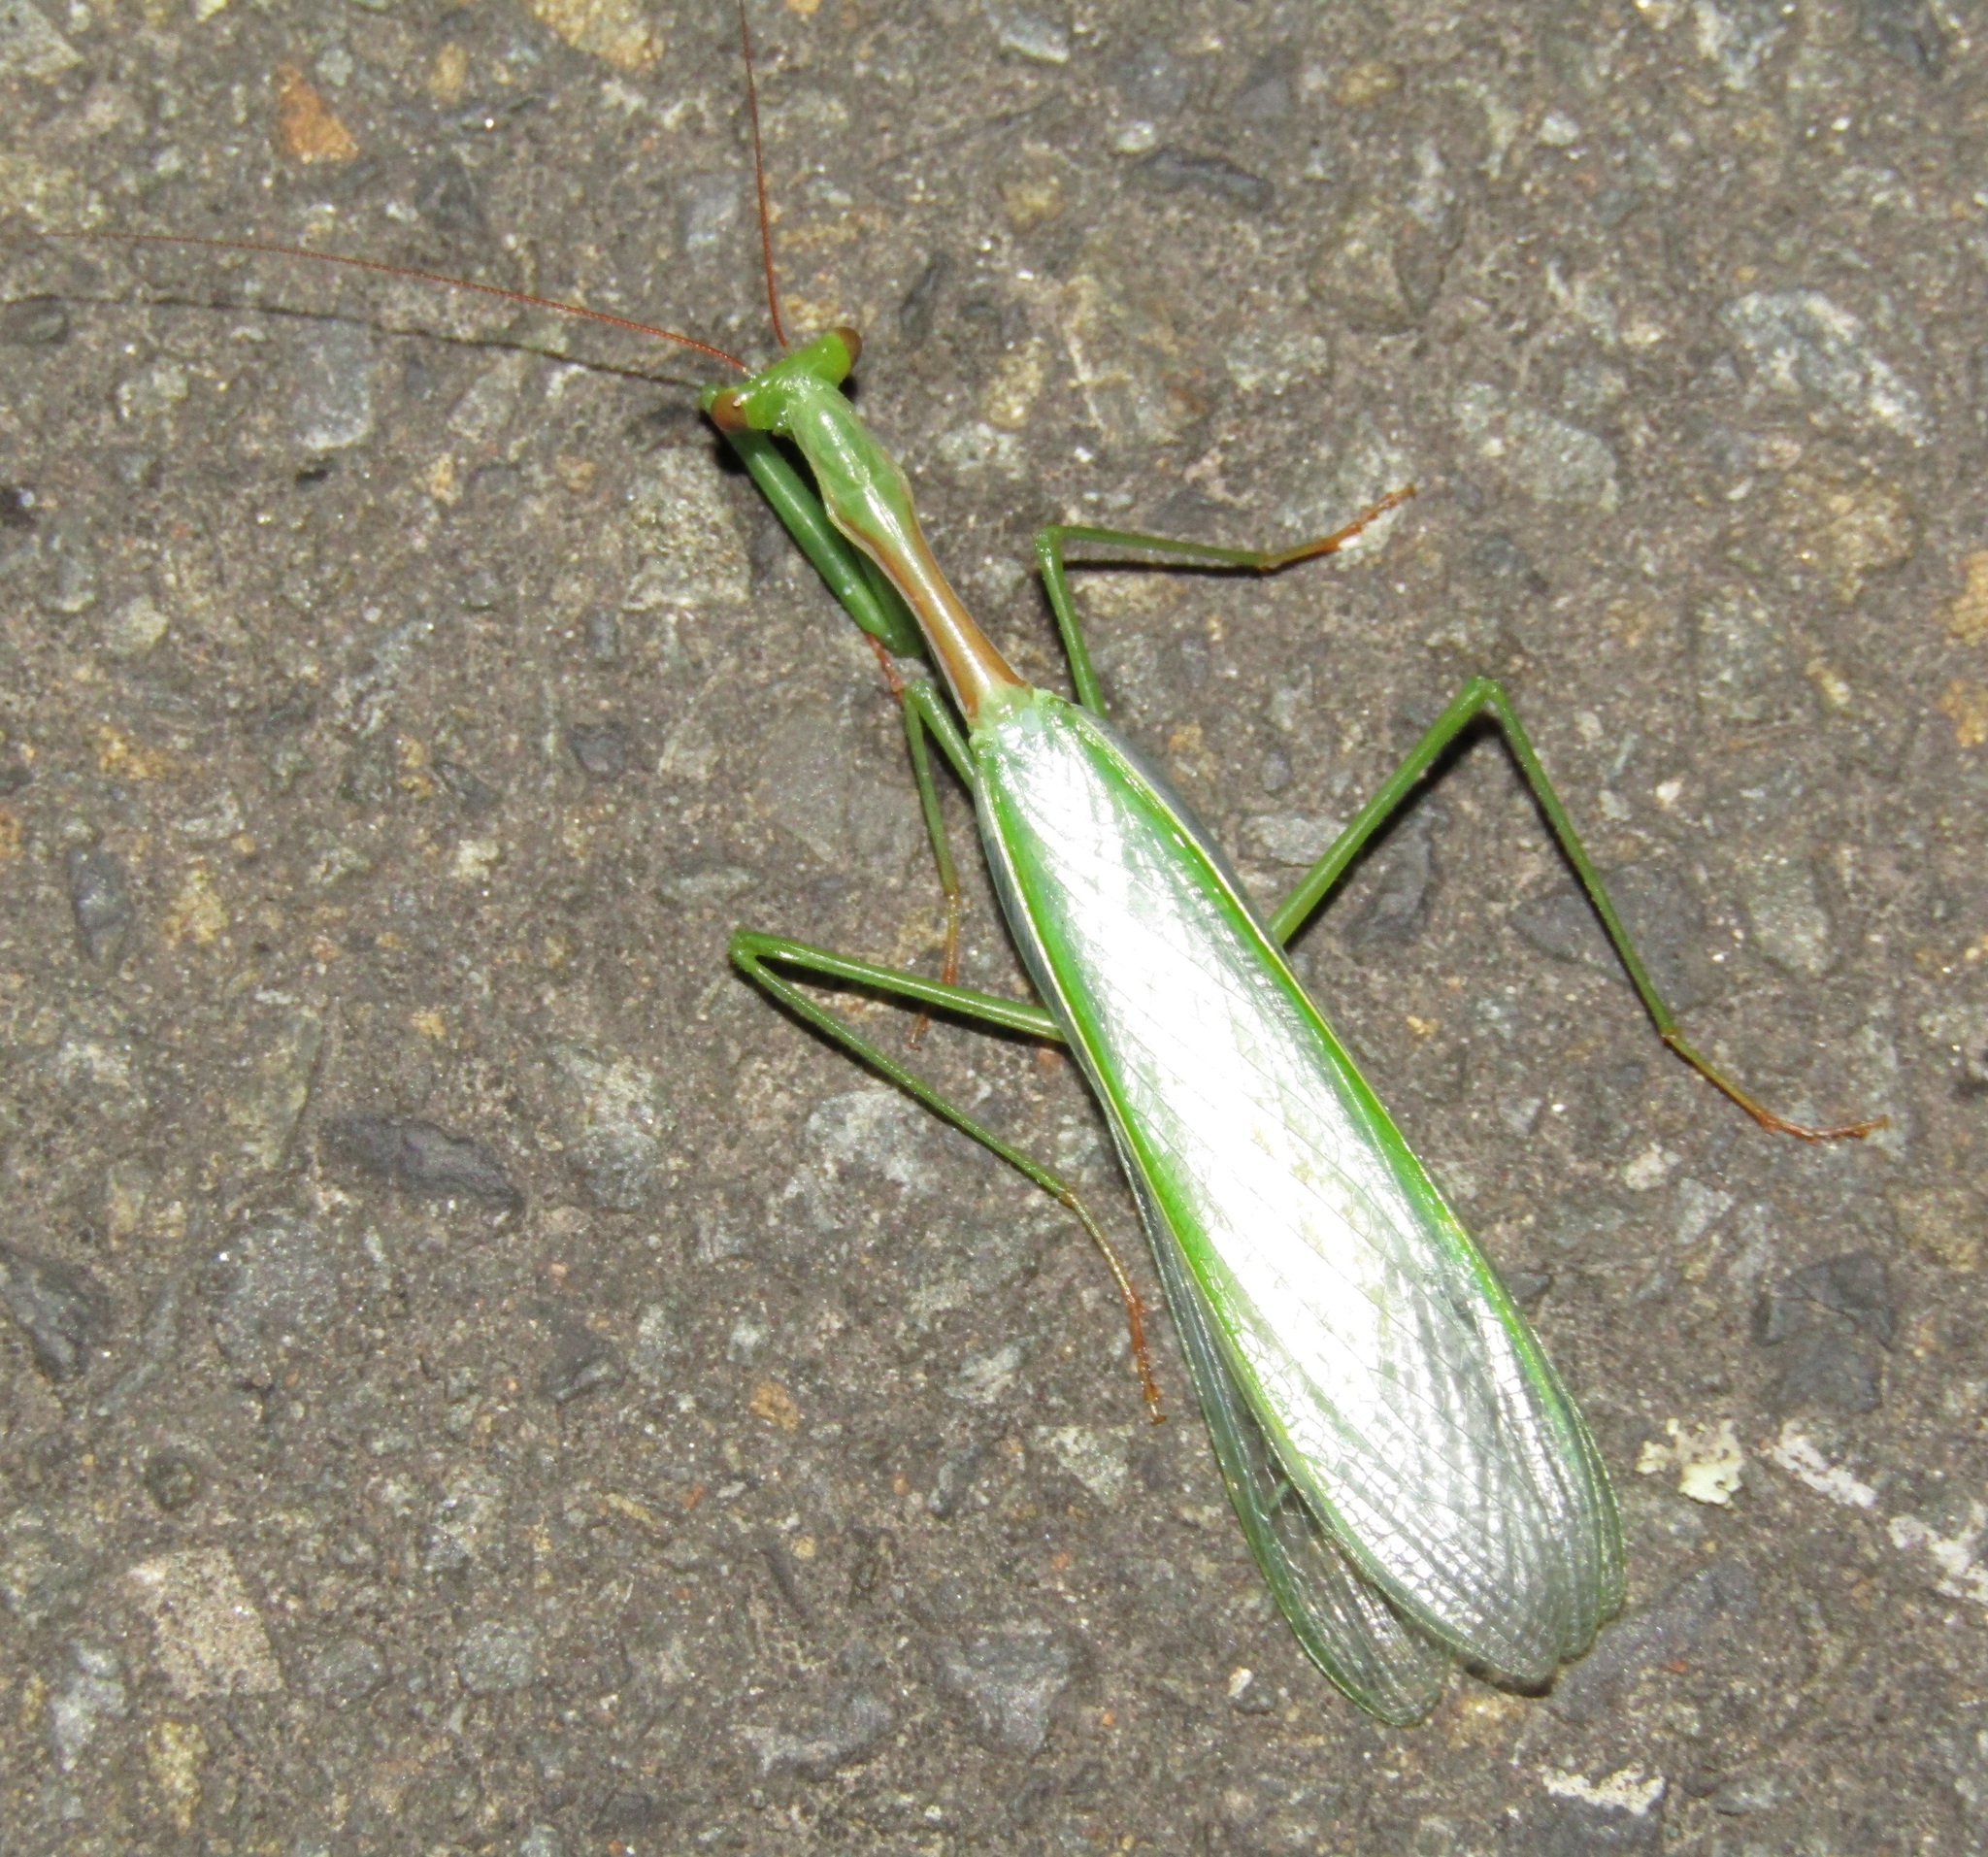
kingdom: Animalia
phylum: Arthropoda
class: Insecta
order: Mantodea
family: Miomantidae
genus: Miomantis
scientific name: Miomantis caffra
